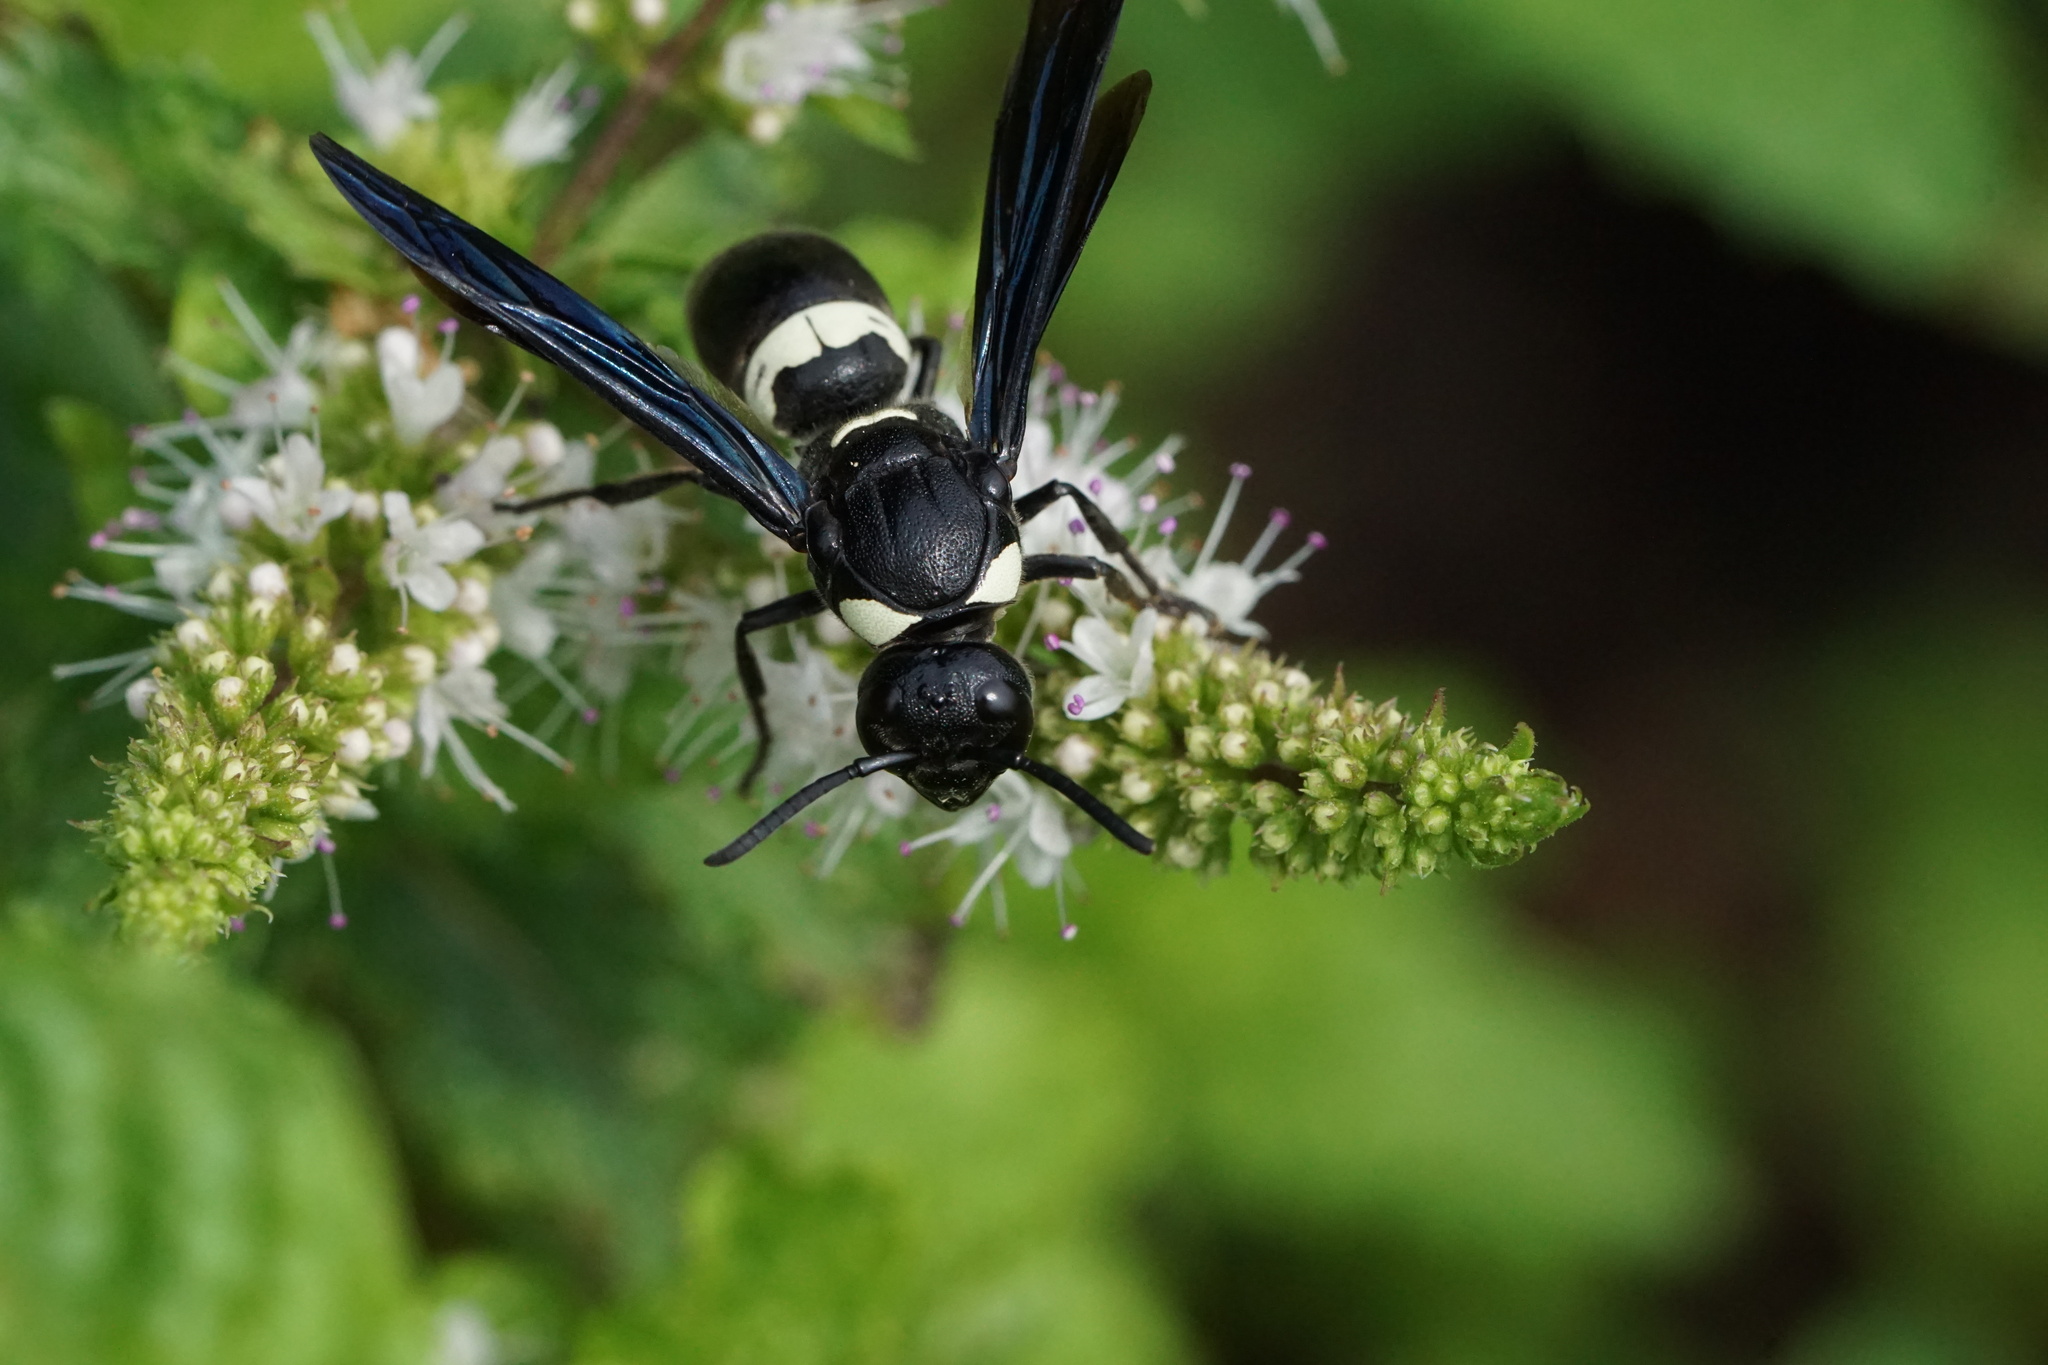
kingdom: Animalia
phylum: Arthropoda
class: Insecta
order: Hymenoptera
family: Eumenidae
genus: Monobia
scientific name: Monobia quadridens
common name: Four-toothed mason wasp
